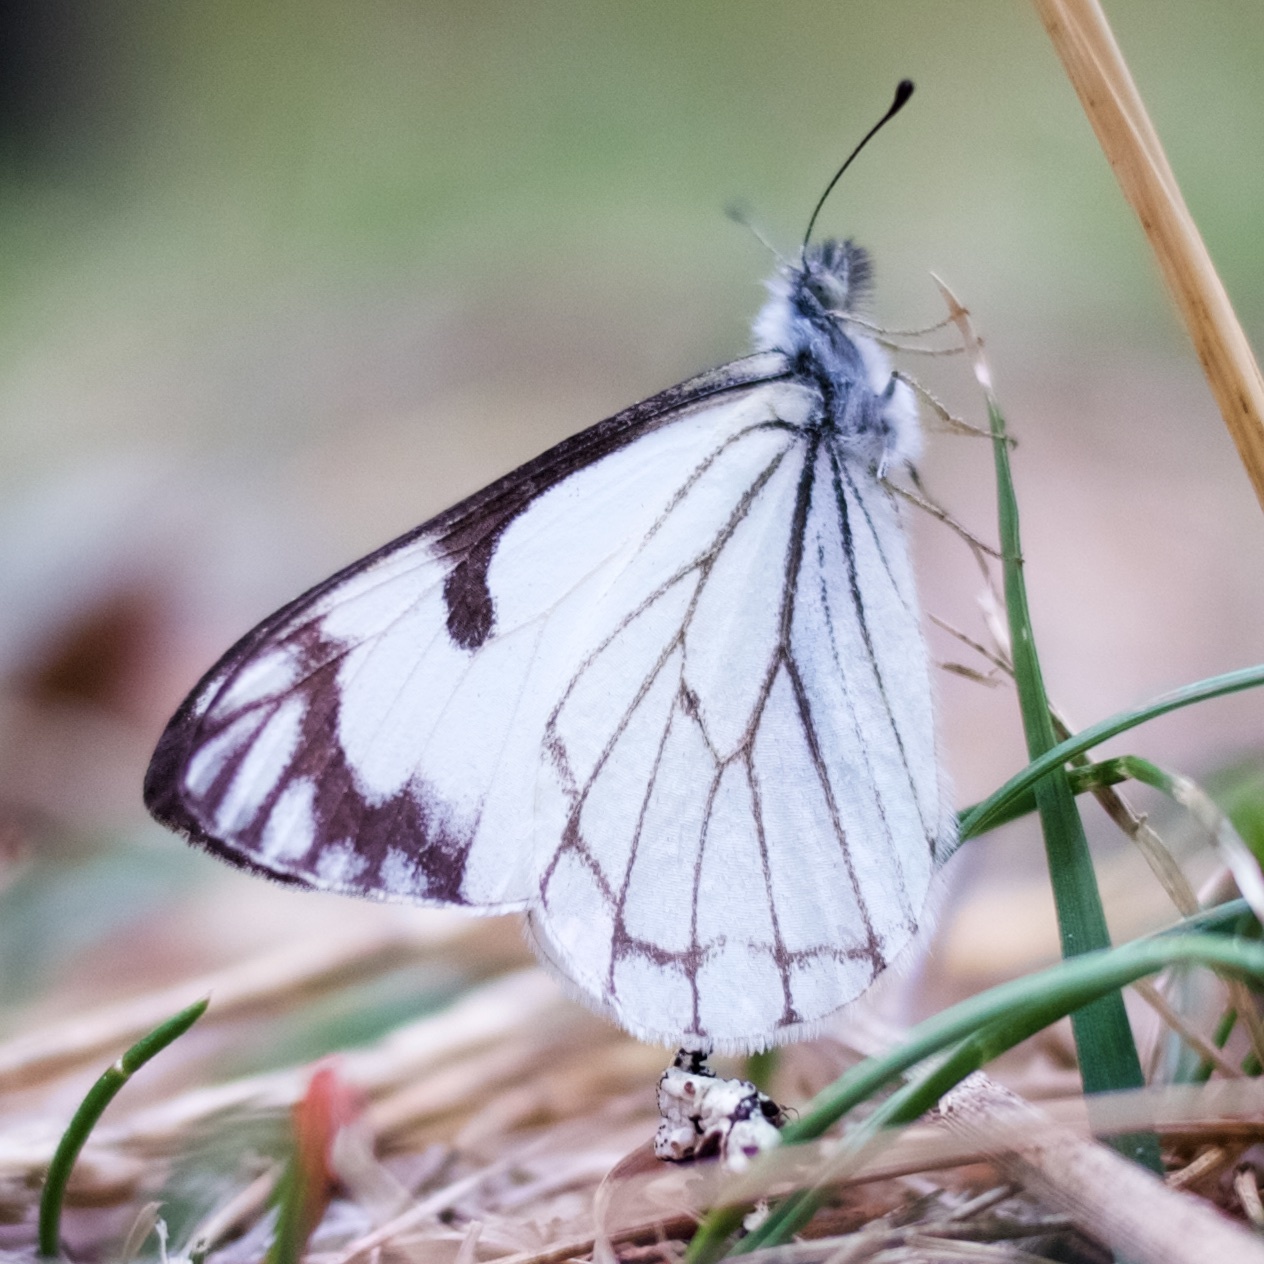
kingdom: Animalia
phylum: Arthropoda
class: Insecta
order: Lepidoptera
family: Pieridae
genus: Neophasia
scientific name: Neophasia menapia
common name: Pine white
